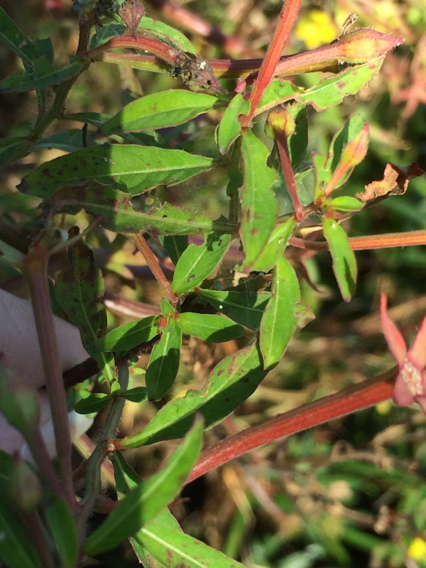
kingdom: Plantae
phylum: Tracheophyta
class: Magnoliopsida
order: Myrtales
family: Onagraceae
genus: Ludwigia
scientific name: Ludwigia leptocarpa
